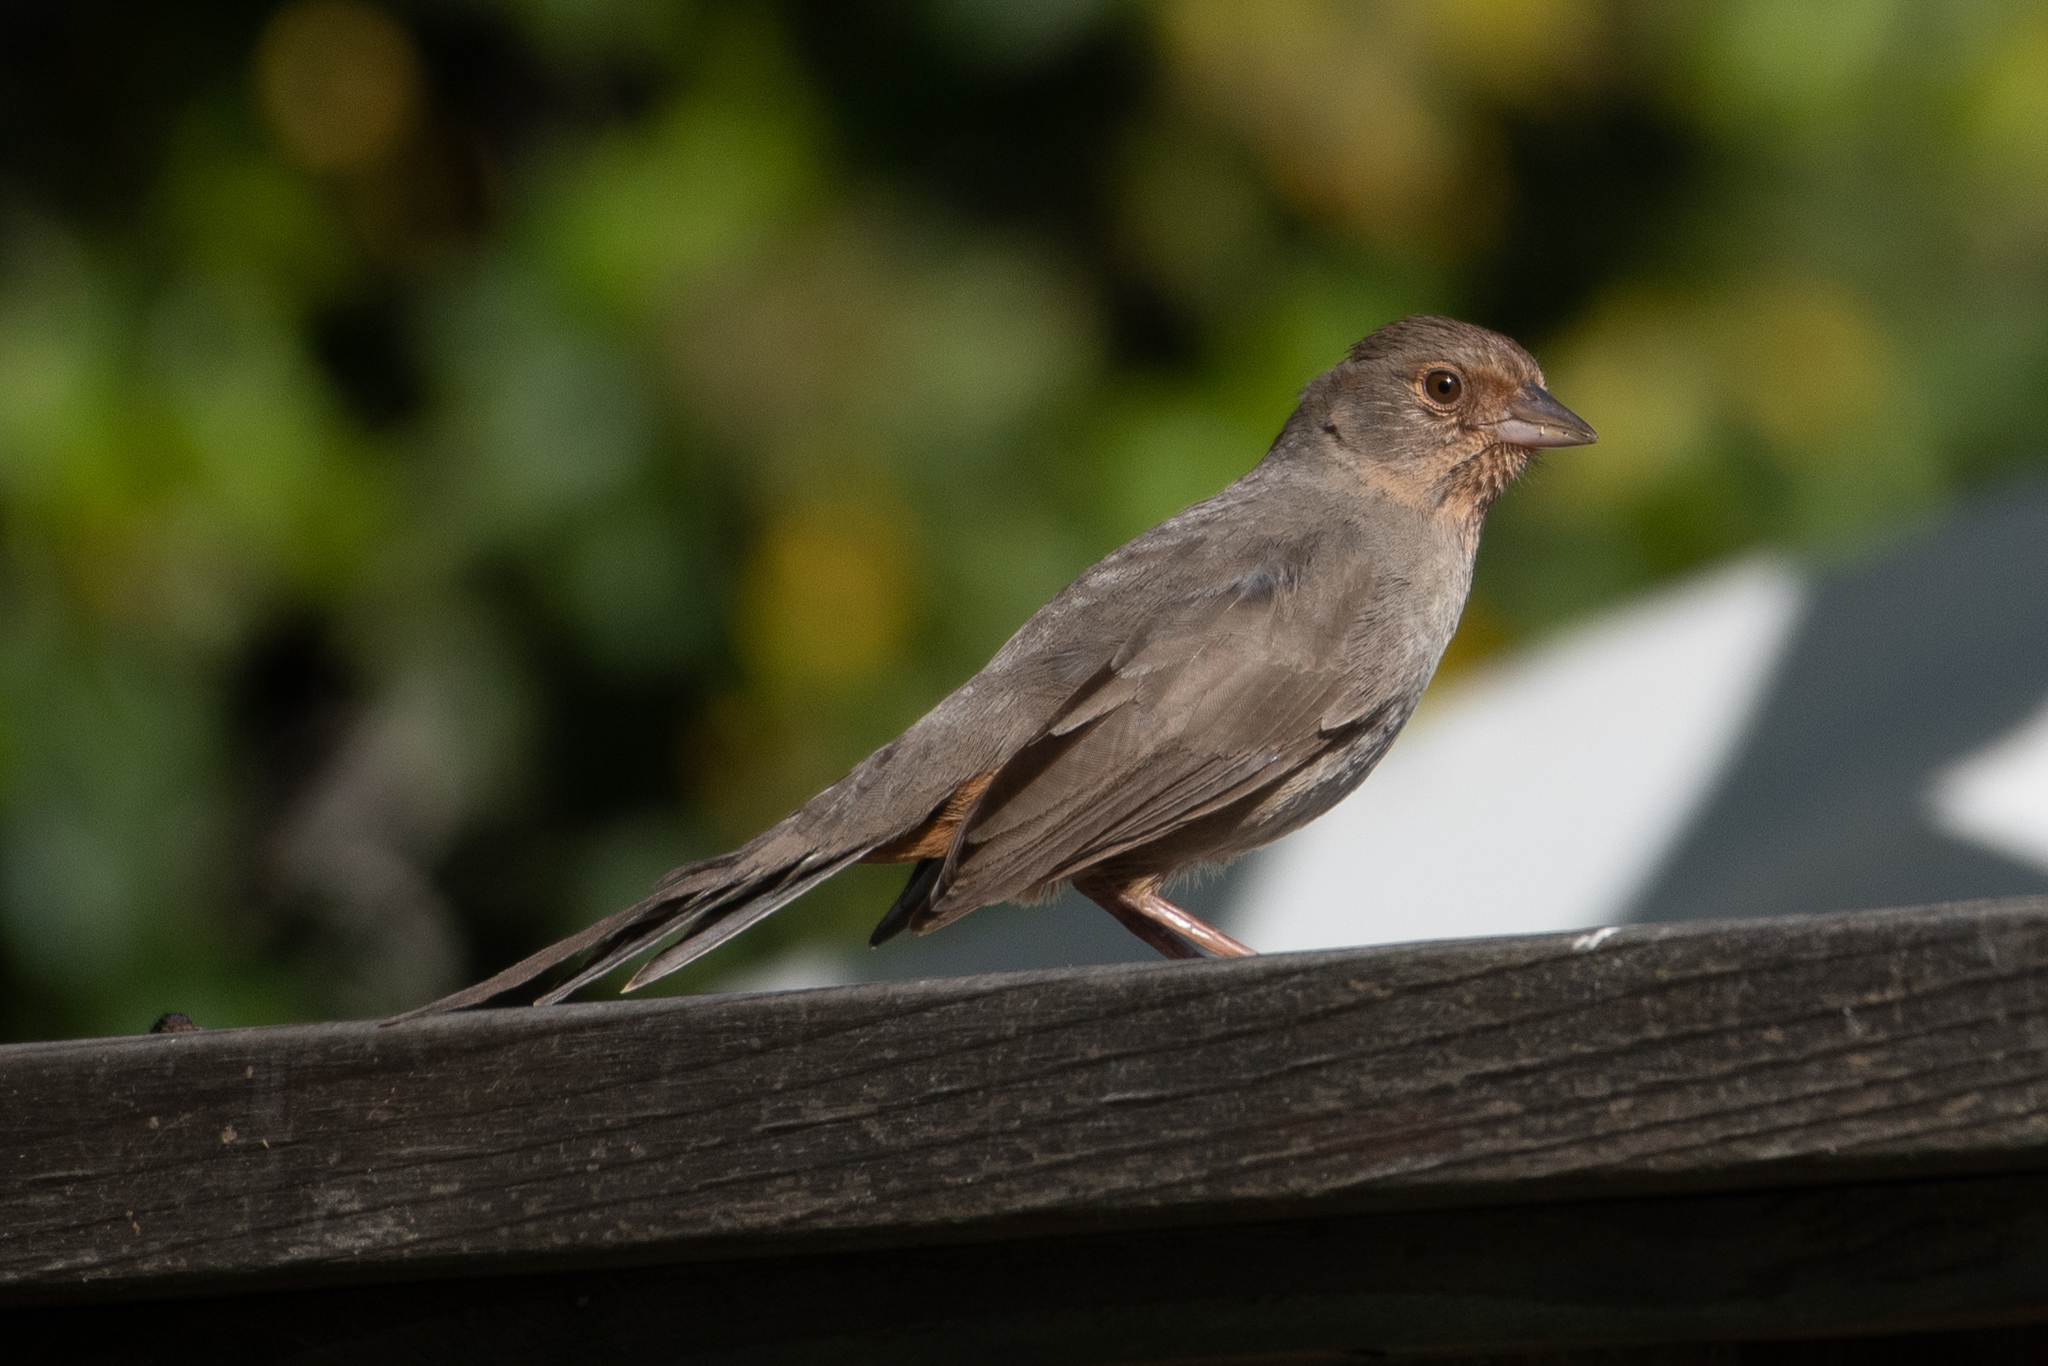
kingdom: Animalia
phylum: Chordata
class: Aves
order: Passeriformes
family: Passerellidae
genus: Melozone
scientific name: Melozone crissalis
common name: California towhee
